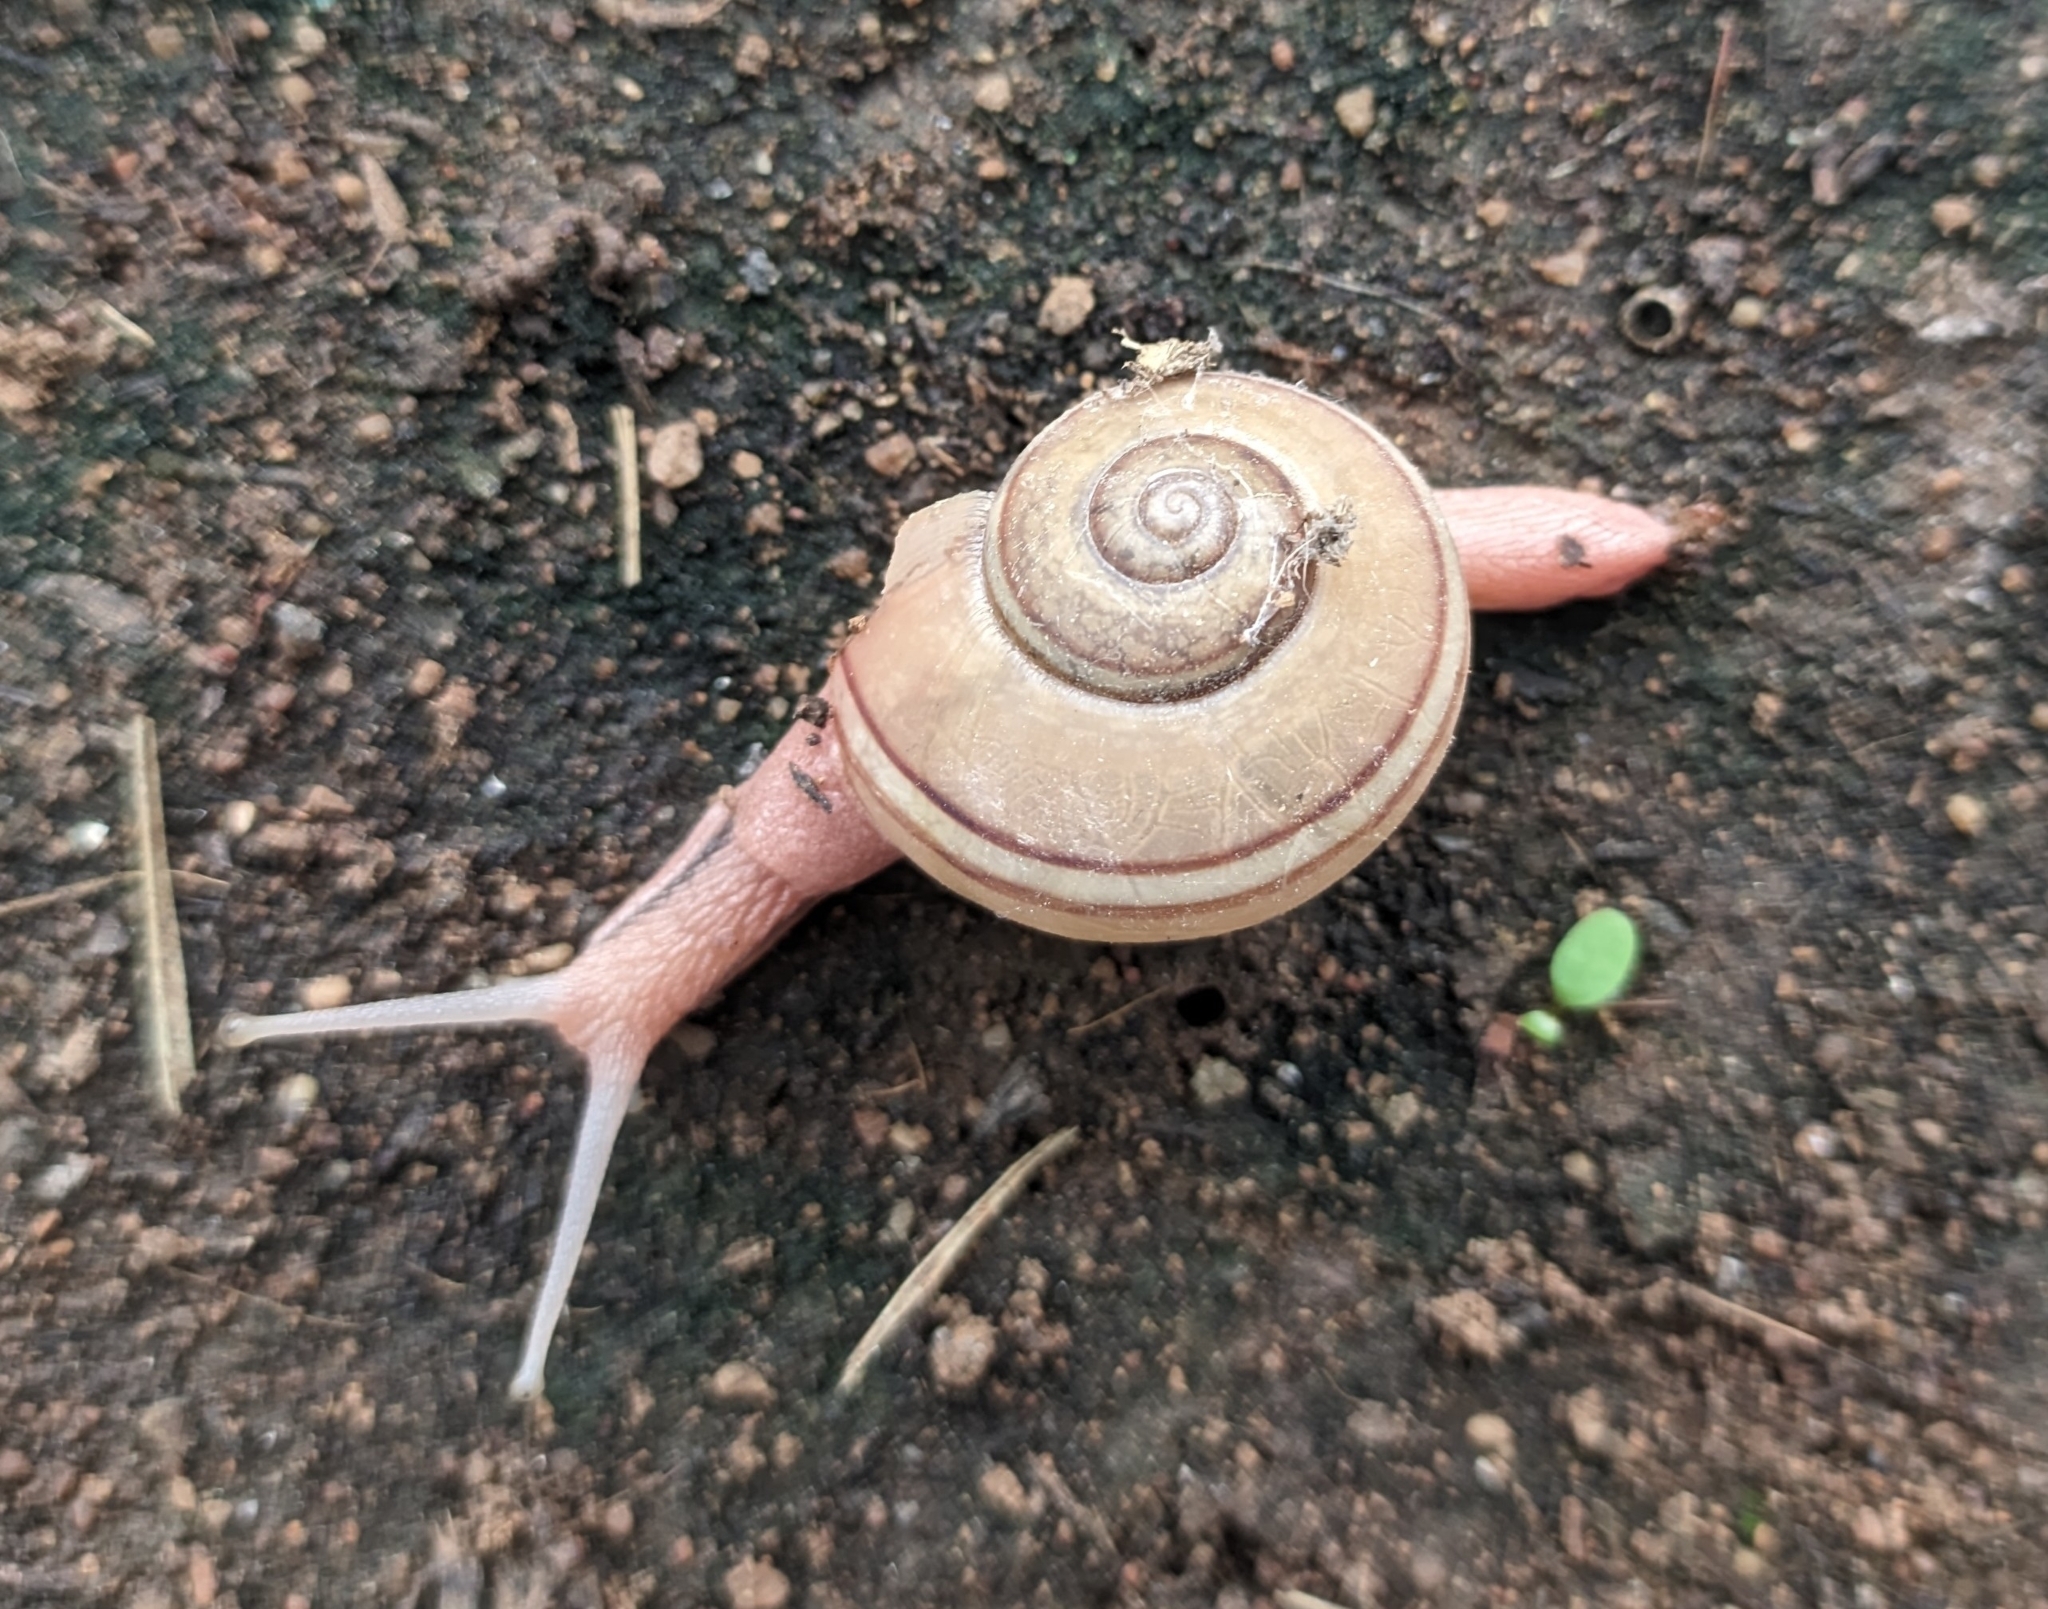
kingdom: Animalia
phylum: Mollusca
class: Gastropoda
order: Stylommatophora
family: Ariophantidae
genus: Ariophanta
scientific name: Ariophanta exilis
